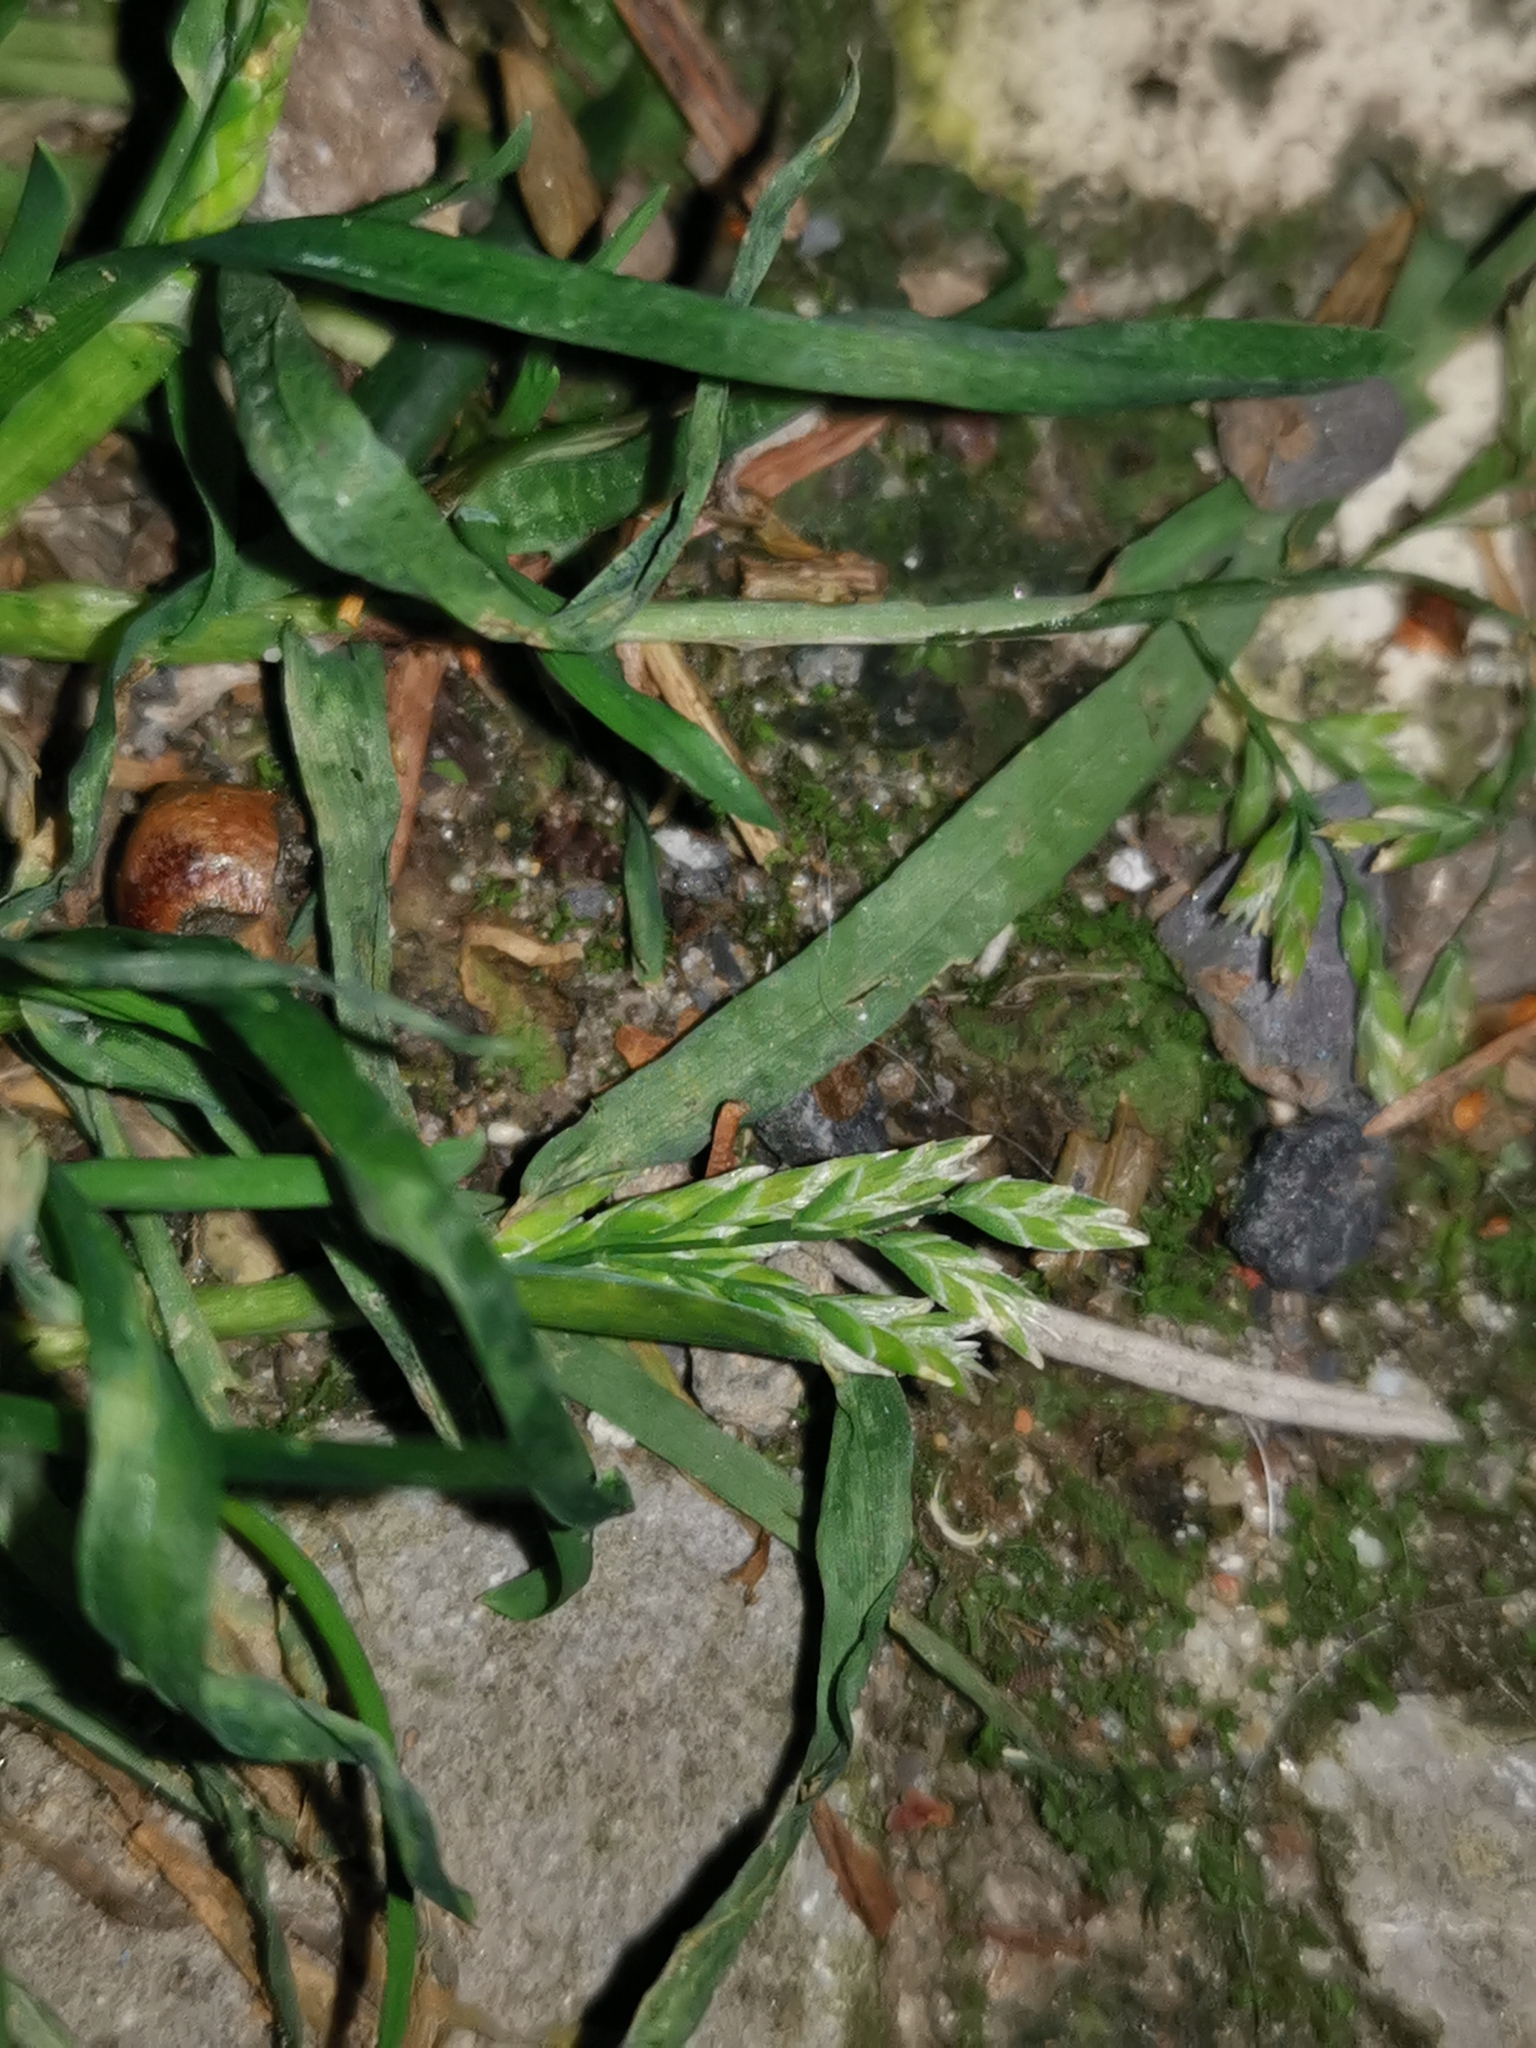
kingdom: Plantae
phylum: Tracheophyta
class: Liliopsida
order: Poales
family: Poaceae
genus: Poa
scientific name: Poa annua
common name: Annual bluegrass
